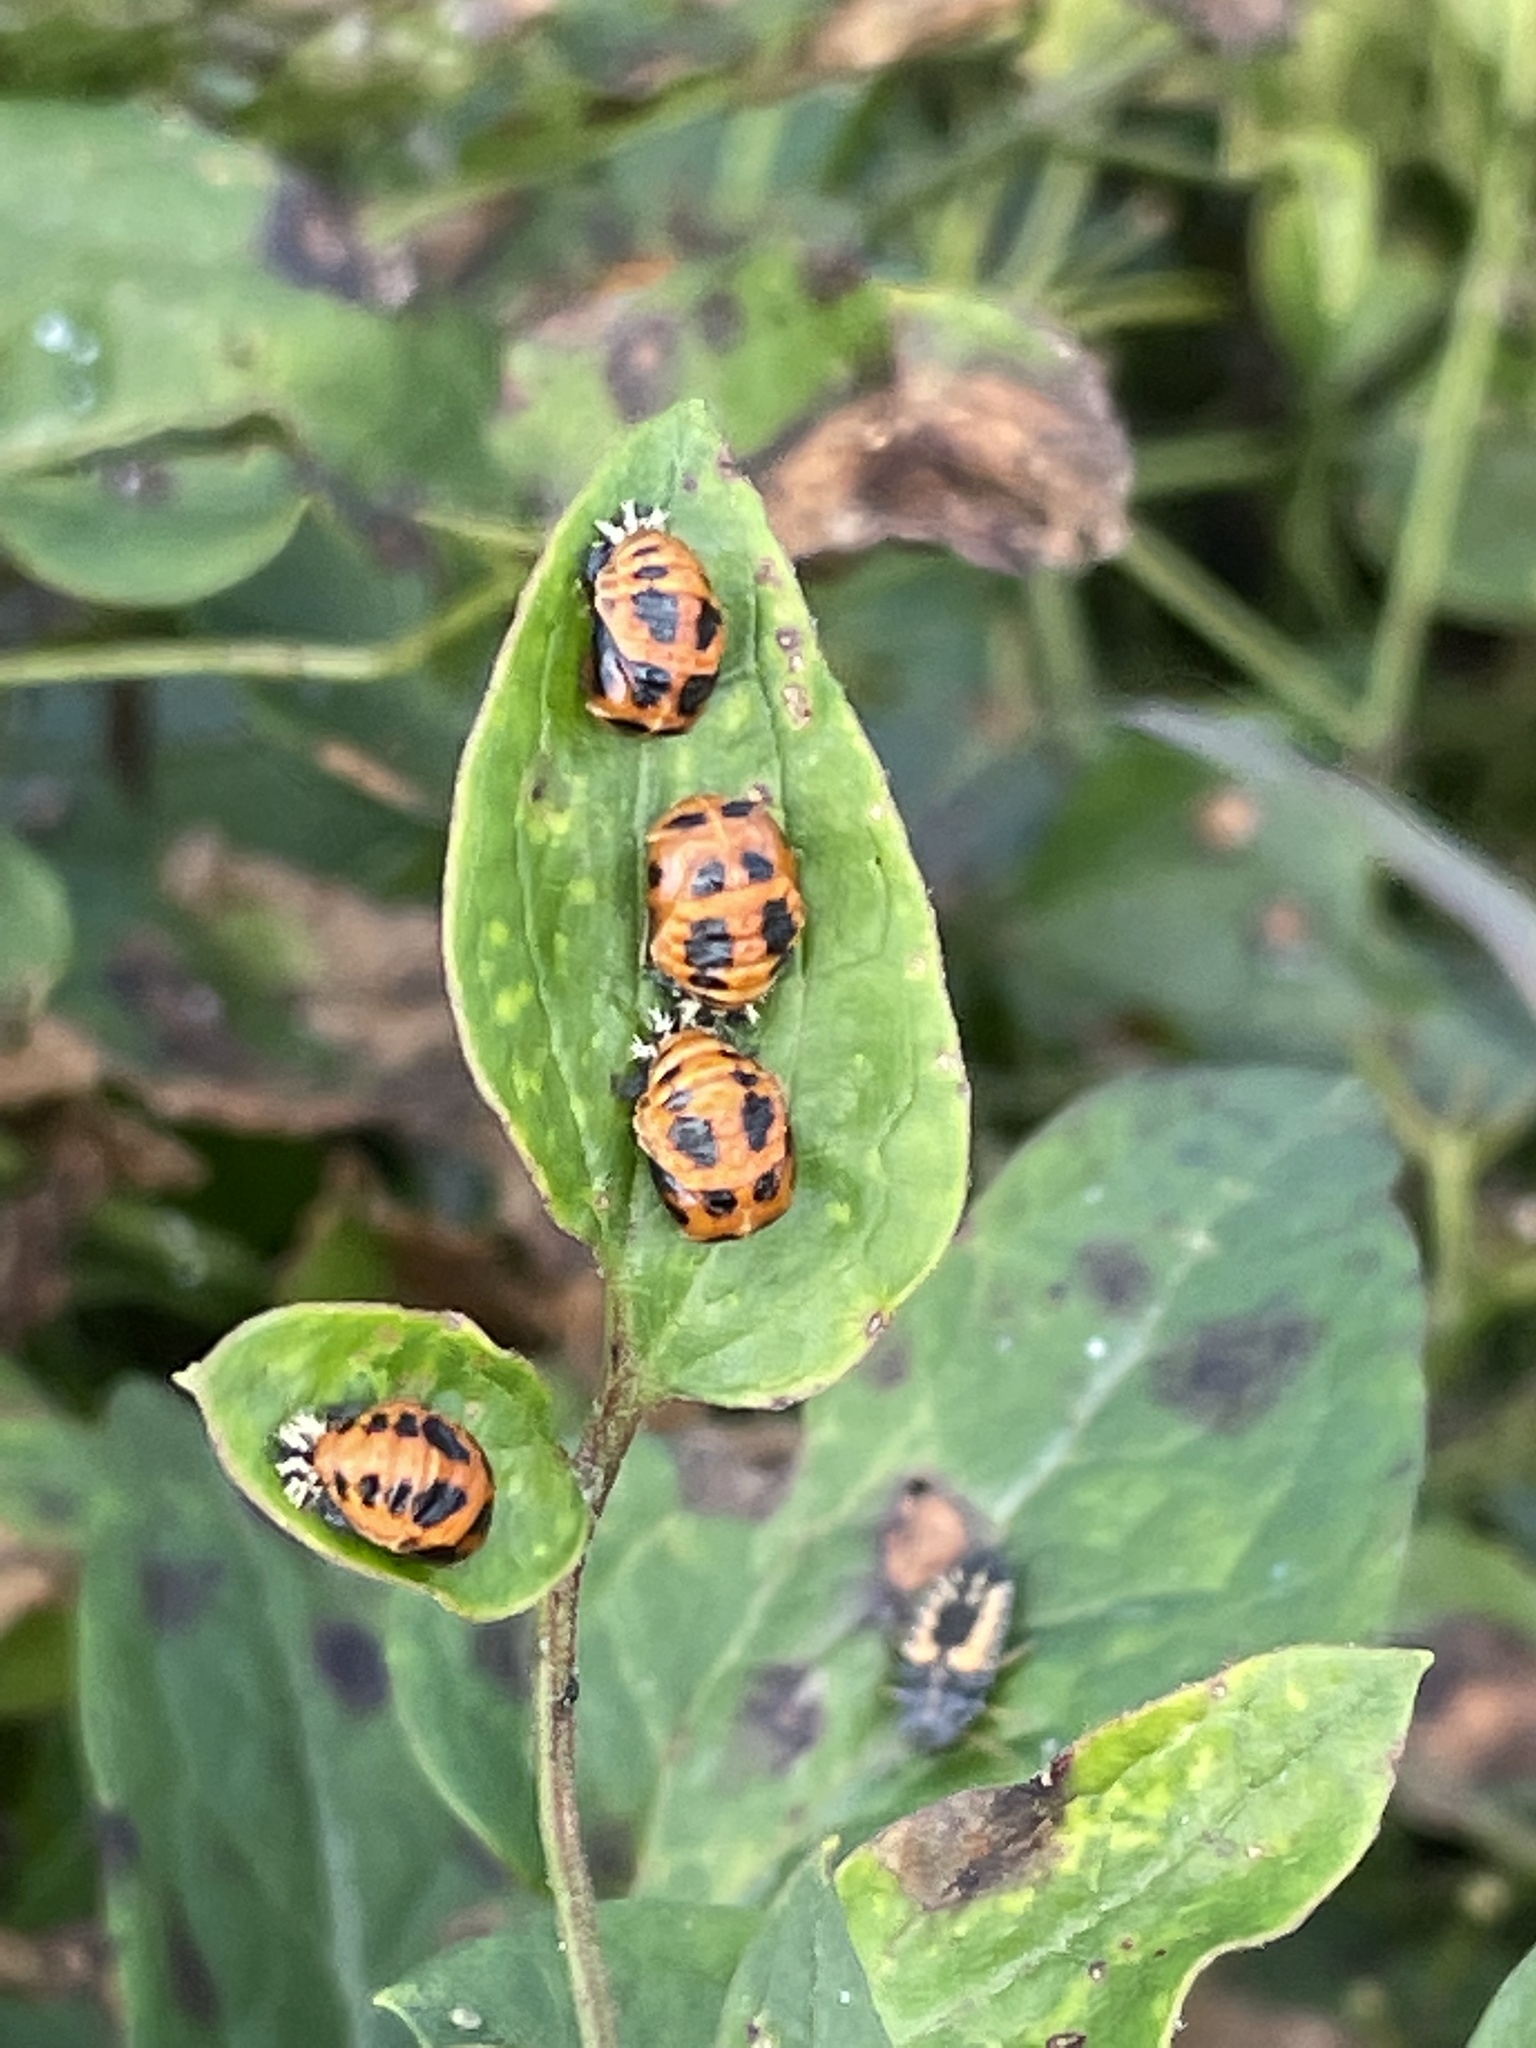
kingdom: Animalia
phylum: Arthropoda
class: Insecta
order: Coleoptera
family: Coccinellidae
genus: Harmonia
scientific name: Harmonia axyridis
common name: Harlequin ladybird
